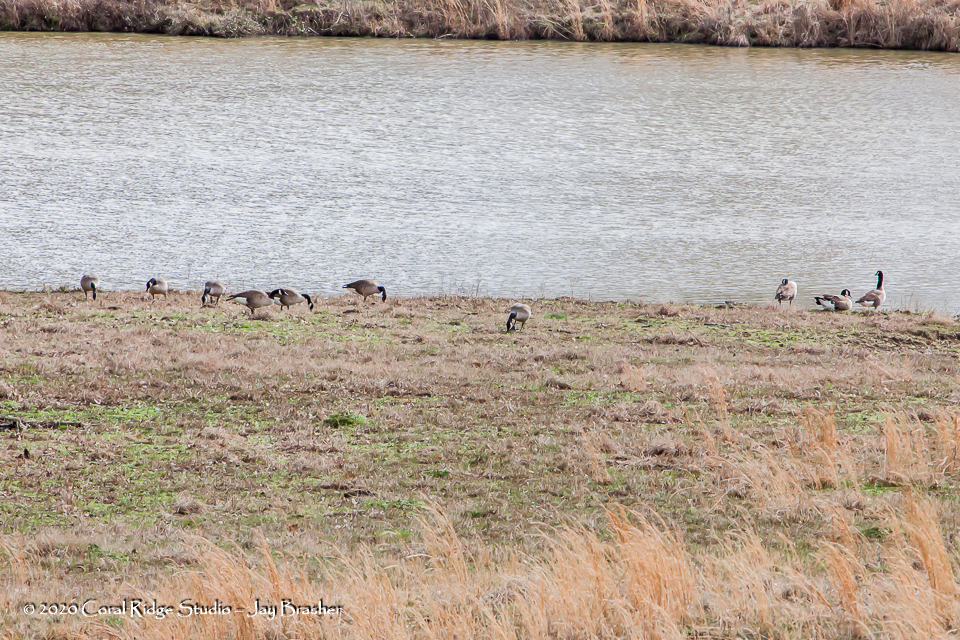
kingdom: Animalia
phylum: Chordata
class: Aves
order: Anseriformes
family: Anatidae
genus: Branta
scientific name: Branta canadensis
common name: Canada goose
